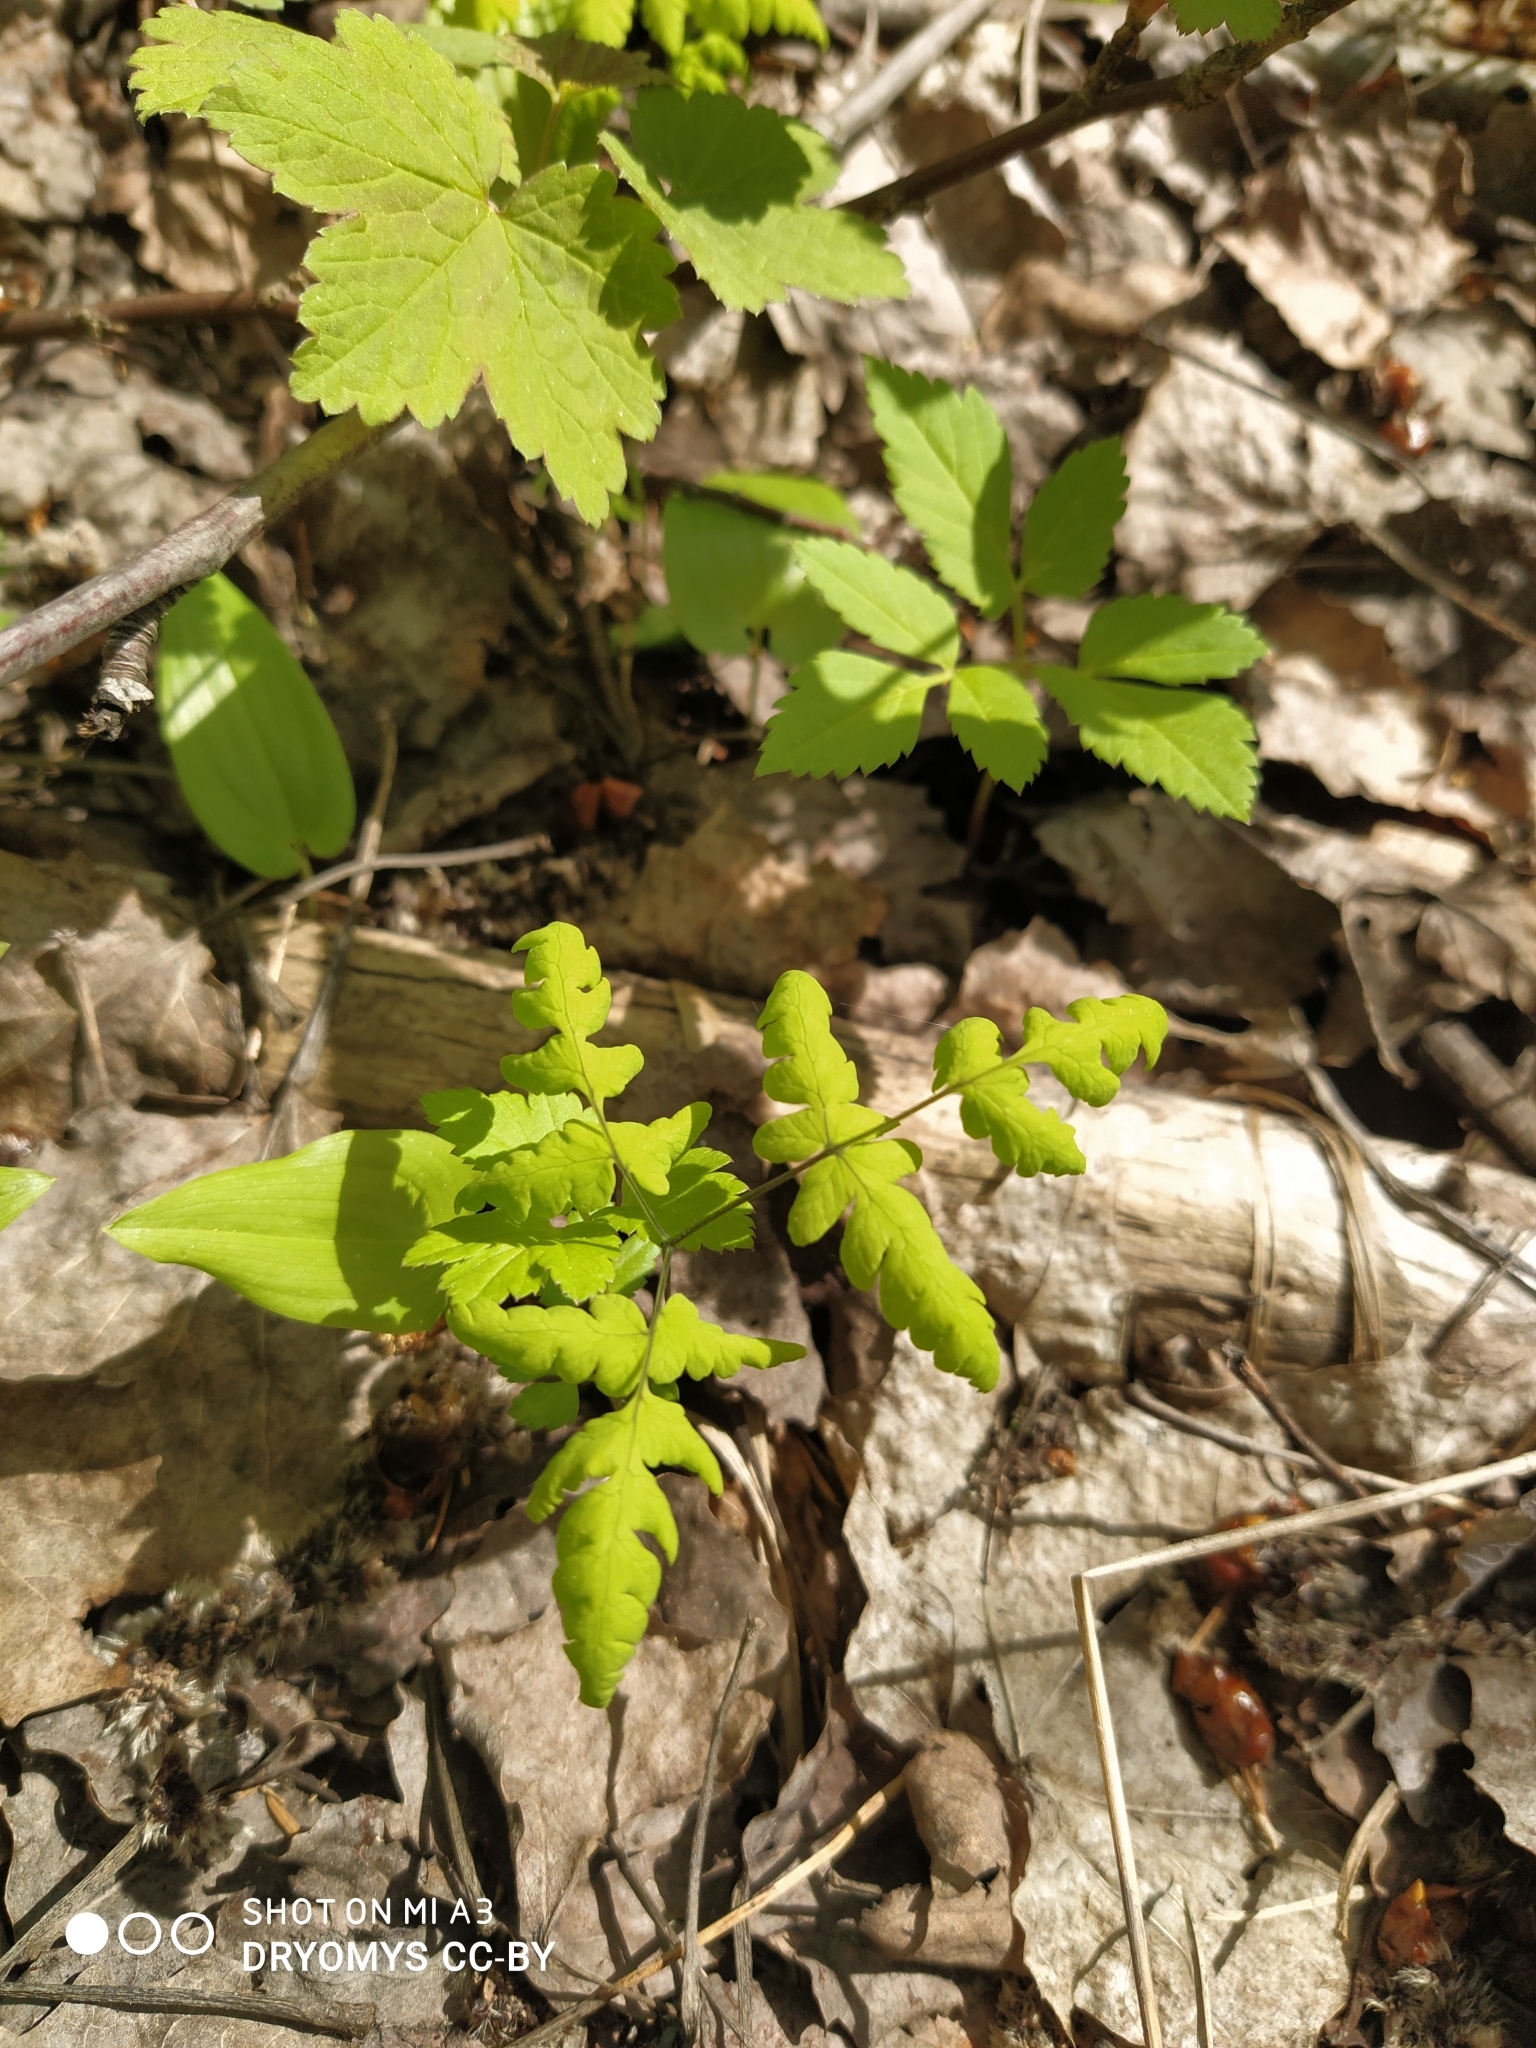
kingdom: Plantae
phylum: Tracheophyta
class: Polypodiopsida
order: Polypodiales
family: Cystopteridaceae
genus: Gymnocarpium
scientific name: Gymnocarpium dryopteris
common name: Oak fern
